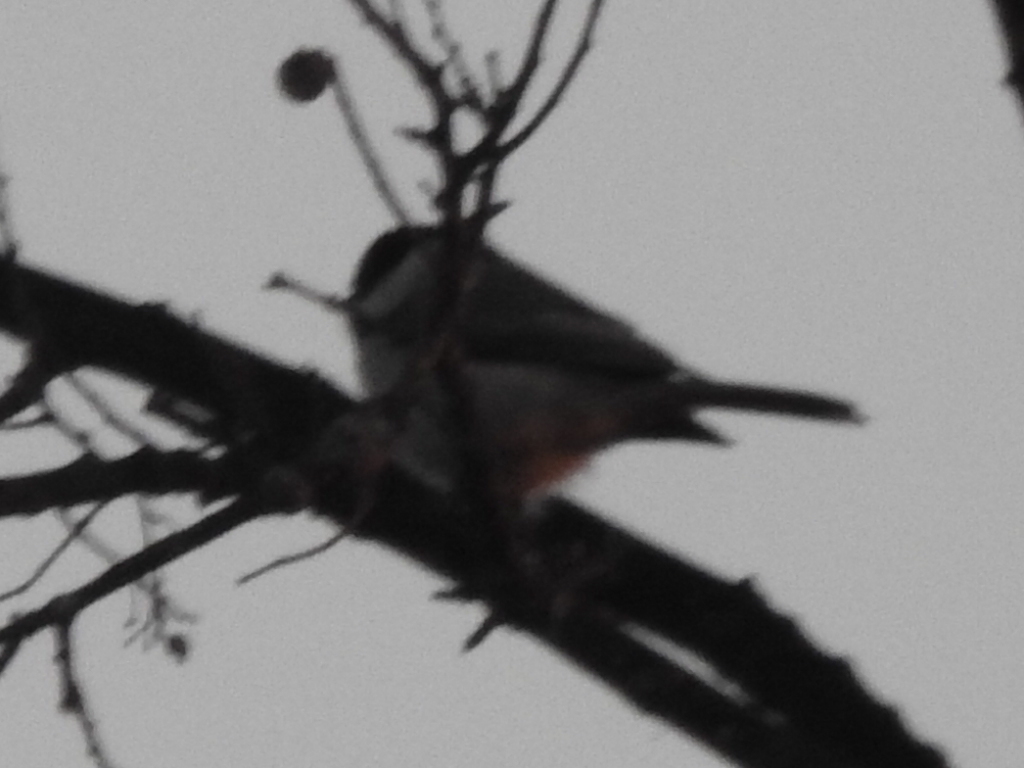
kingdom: Animalia
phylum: Chordata
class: Aves
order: Passeriformes
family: Paridae
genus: Poecile
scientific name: Poecile carolinensis
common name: Carolina chickadee
